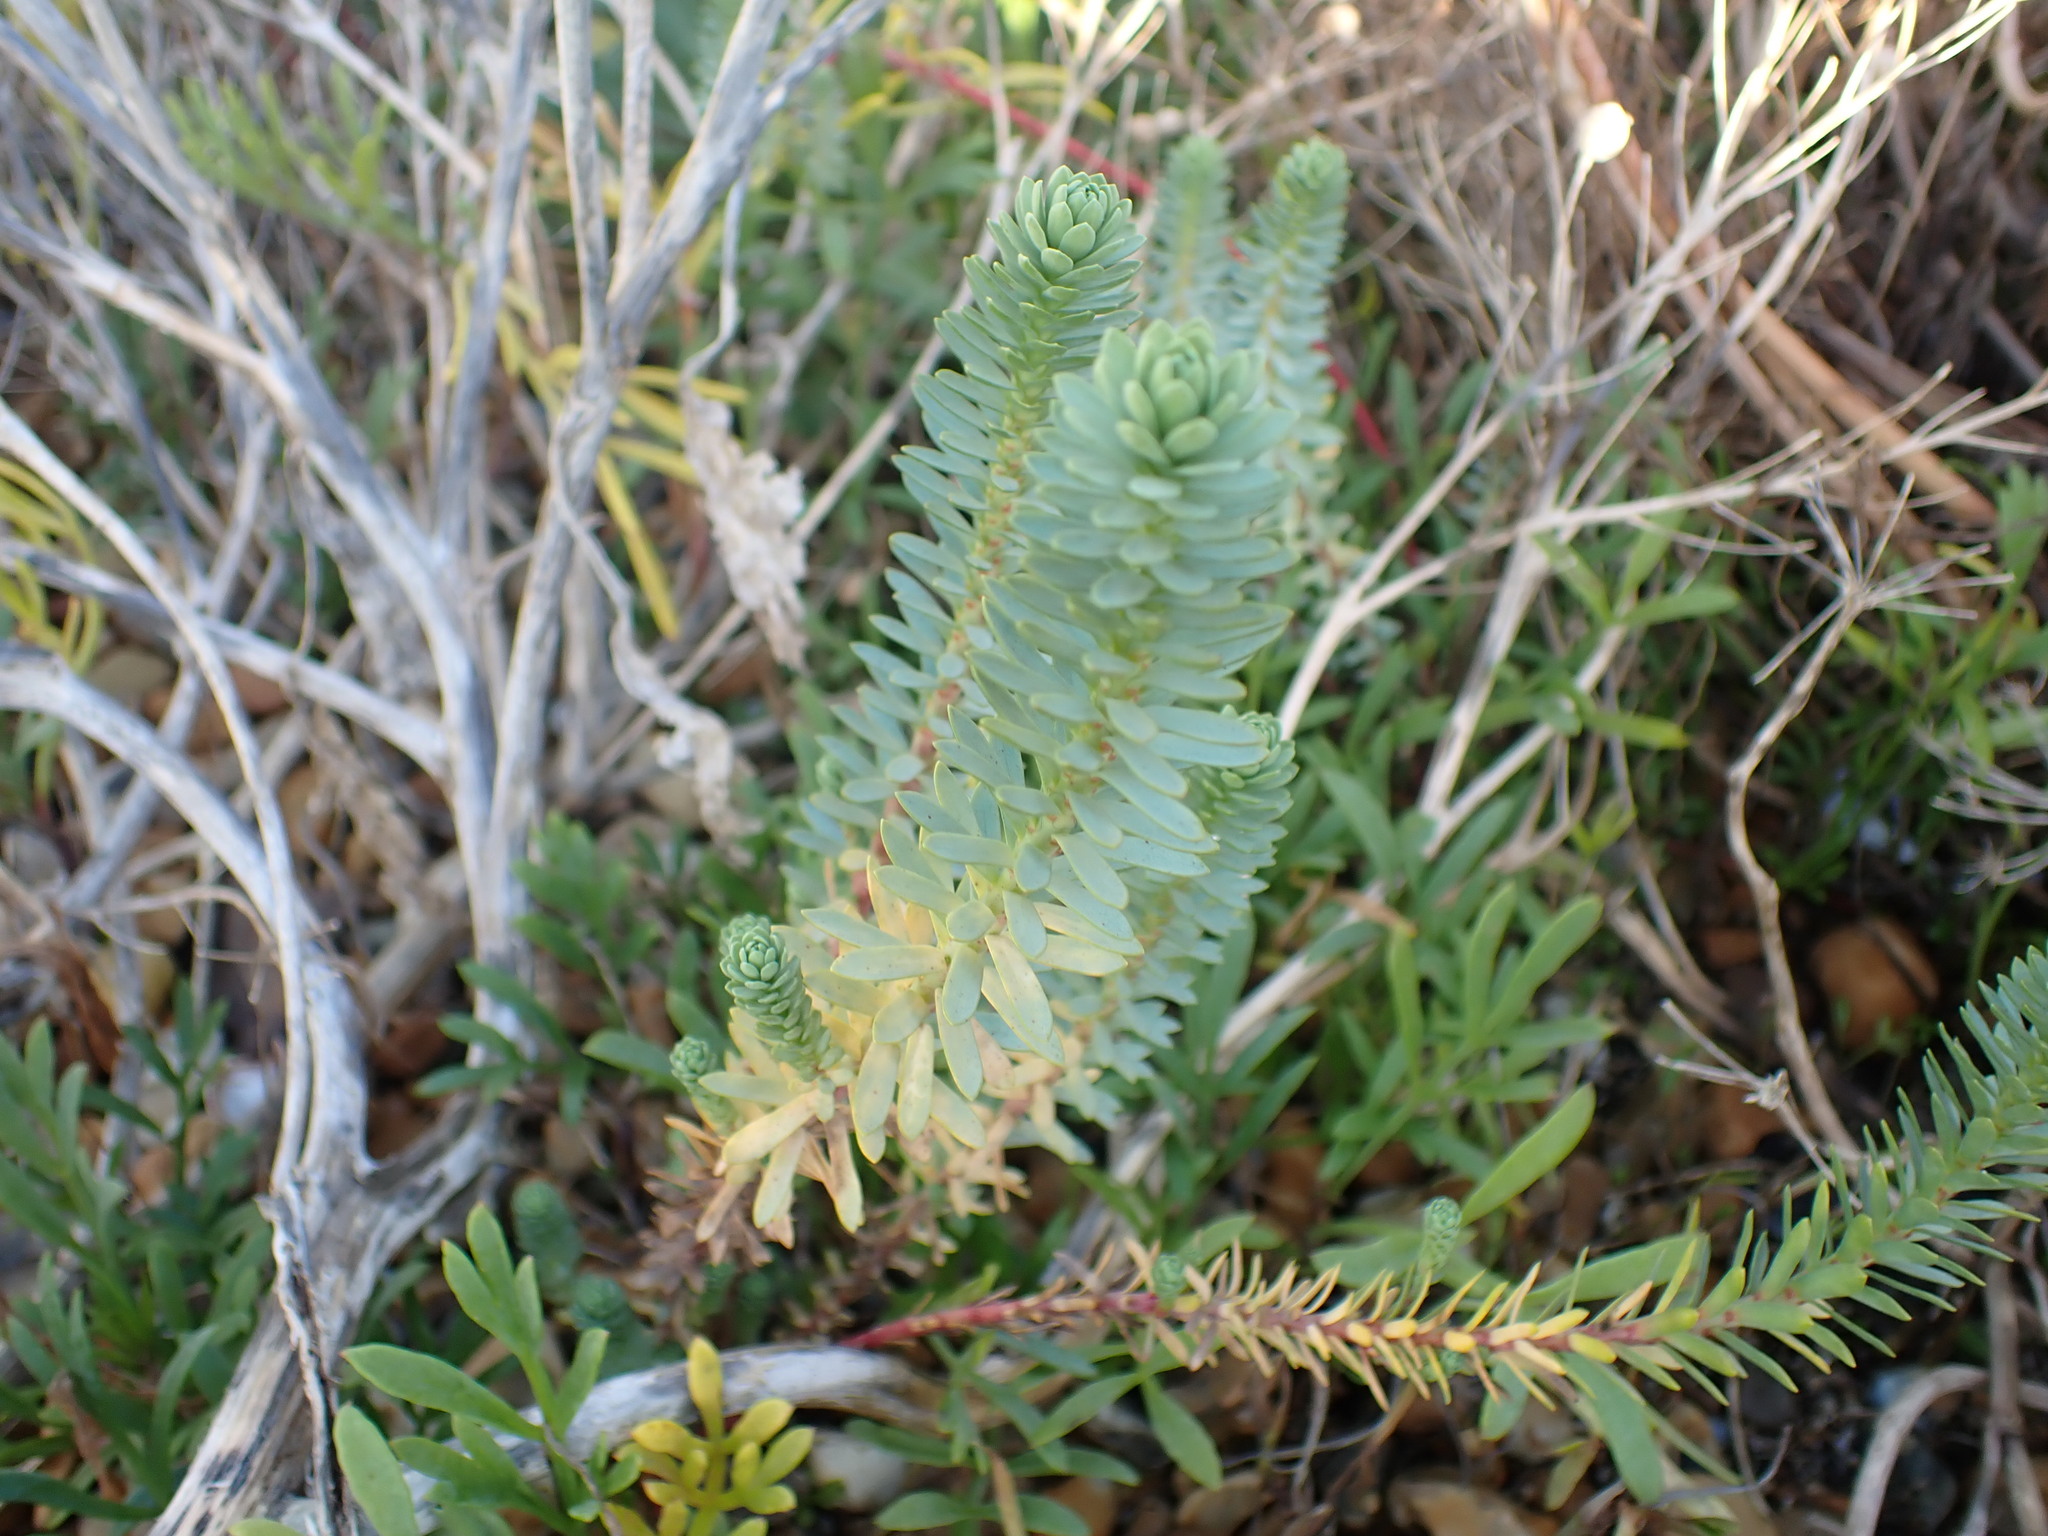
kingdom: Plantae
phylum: Tracheophyta
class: Magnoliopsida
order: Malpighiales
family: Euphorbiaceae
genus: Euphorbia
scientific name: Euphorbia paralias
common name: Sea spurge
